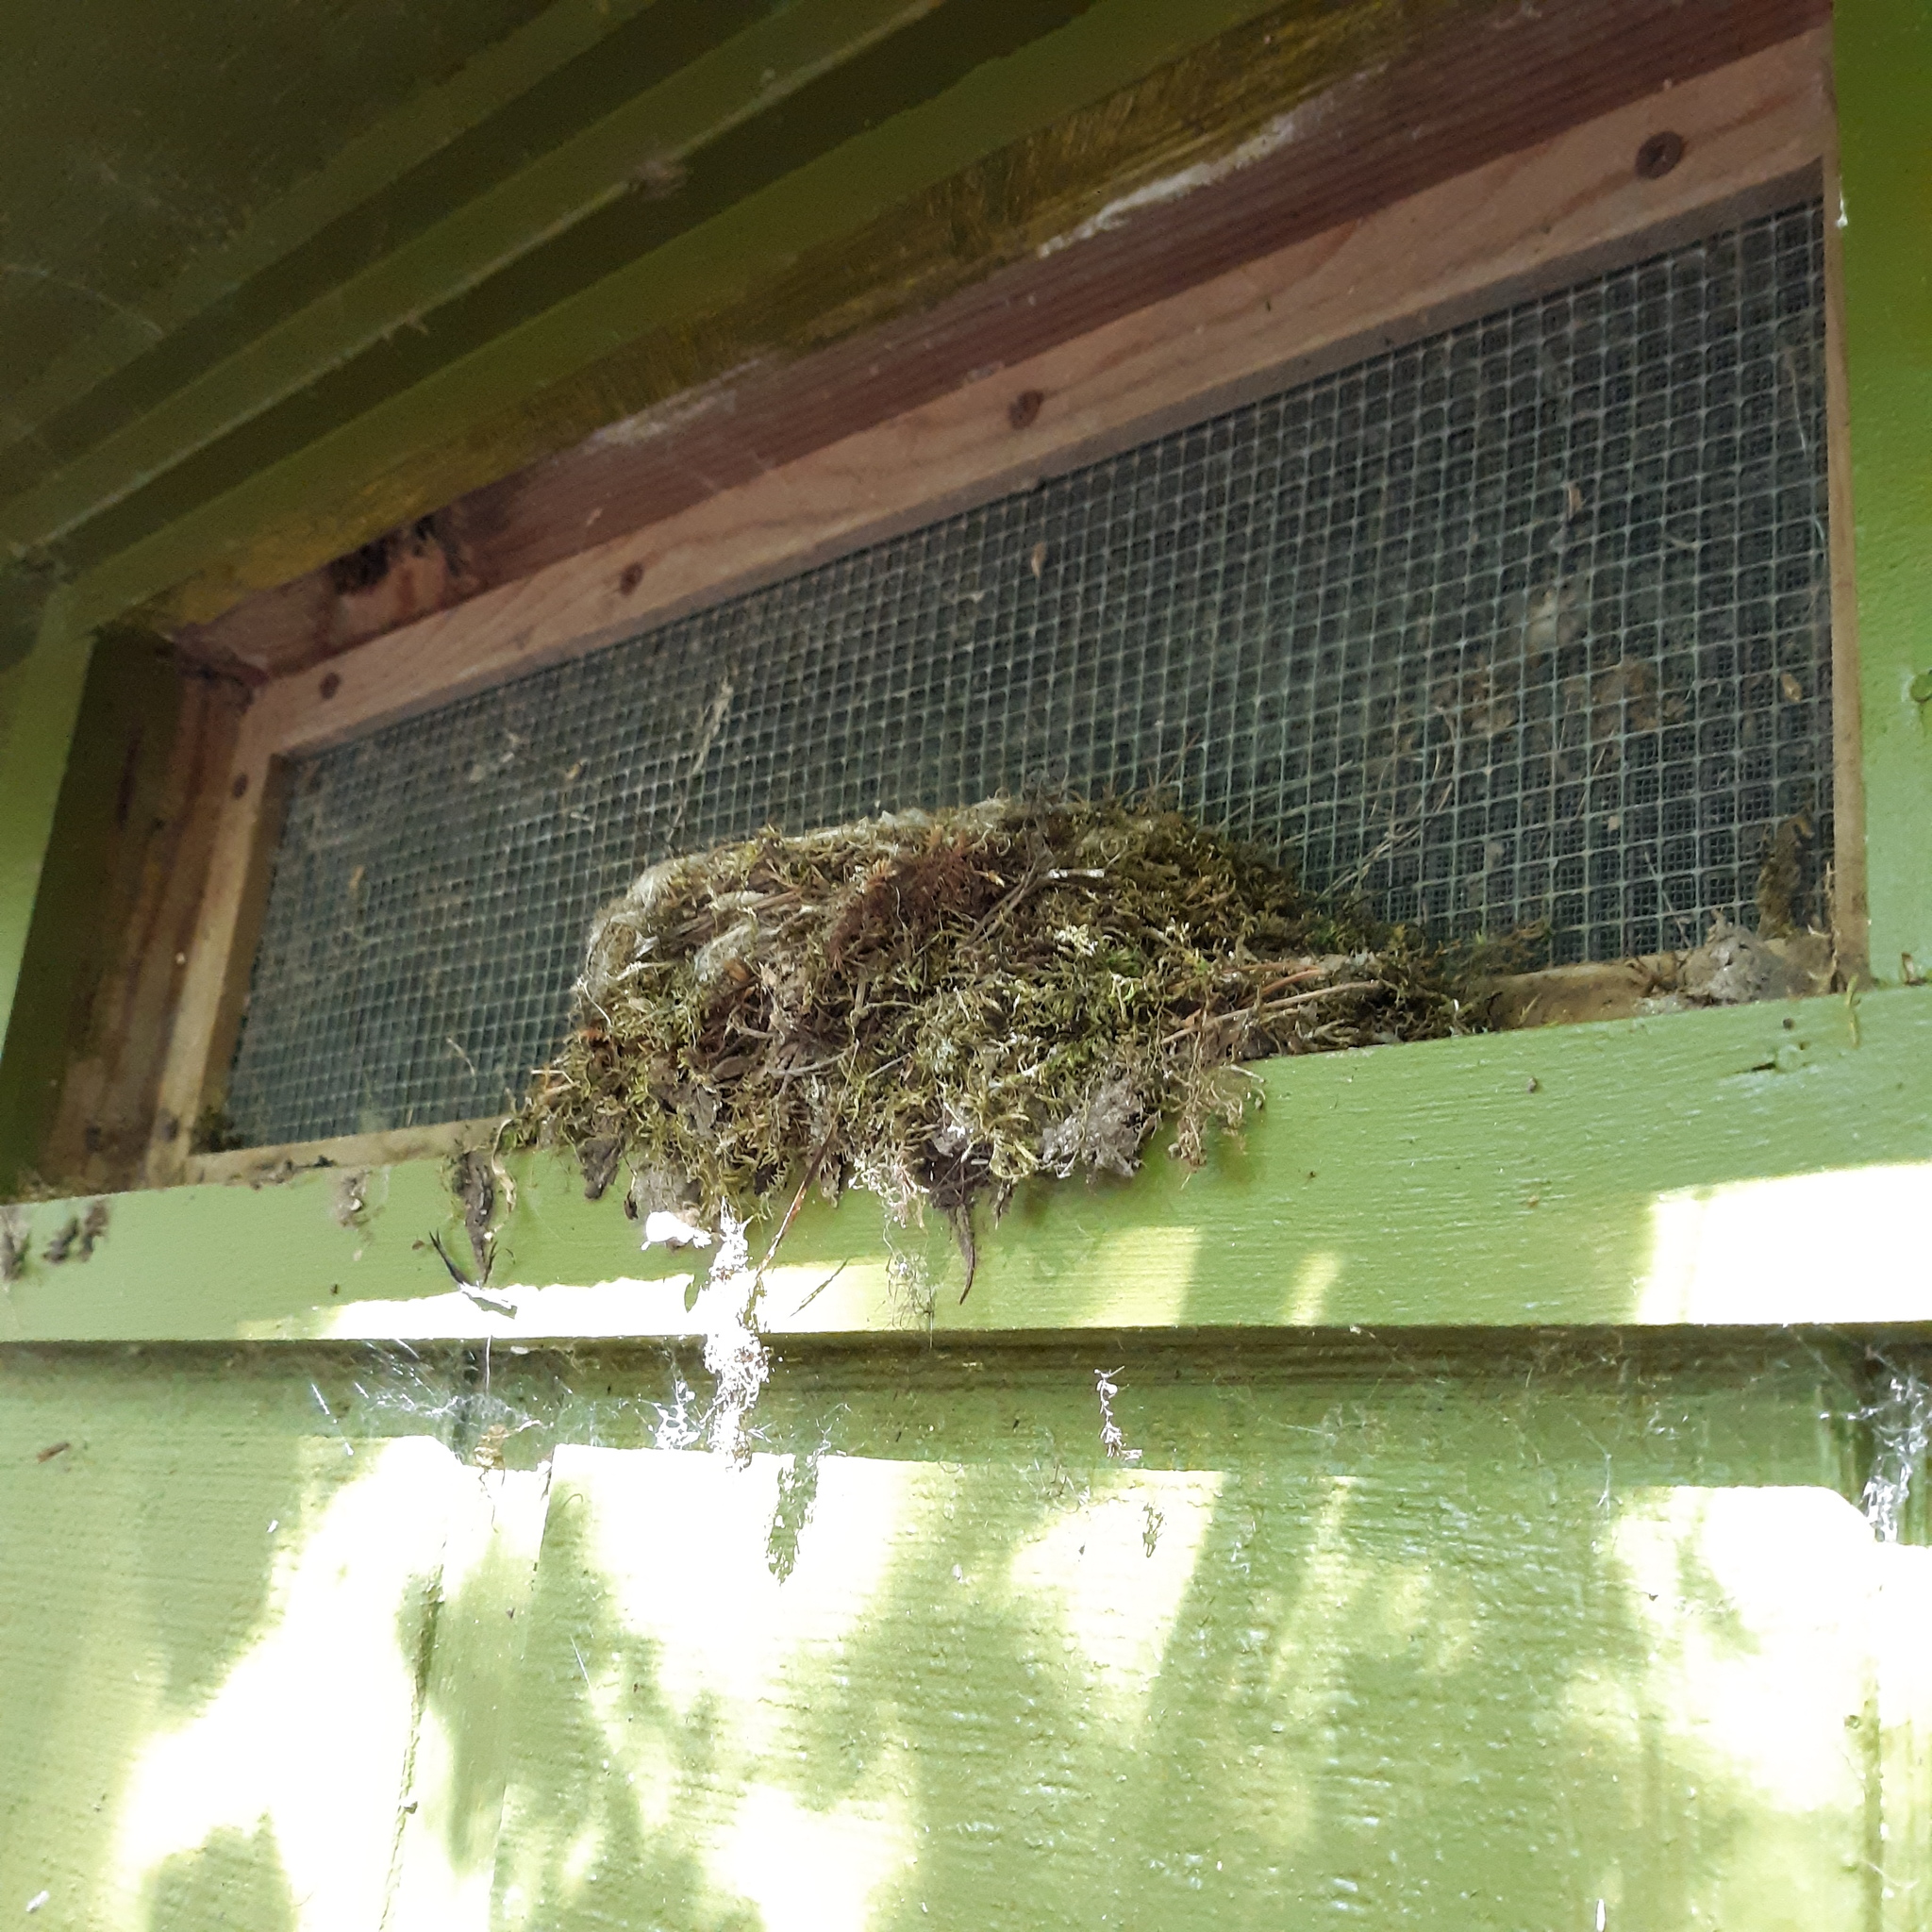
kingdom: Animalia
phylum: Chordata
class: Aves
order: Passeriformes
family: Tyrannidae
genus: Sayornis
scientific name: Sayornis phoebe
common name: Eastern phoebe
